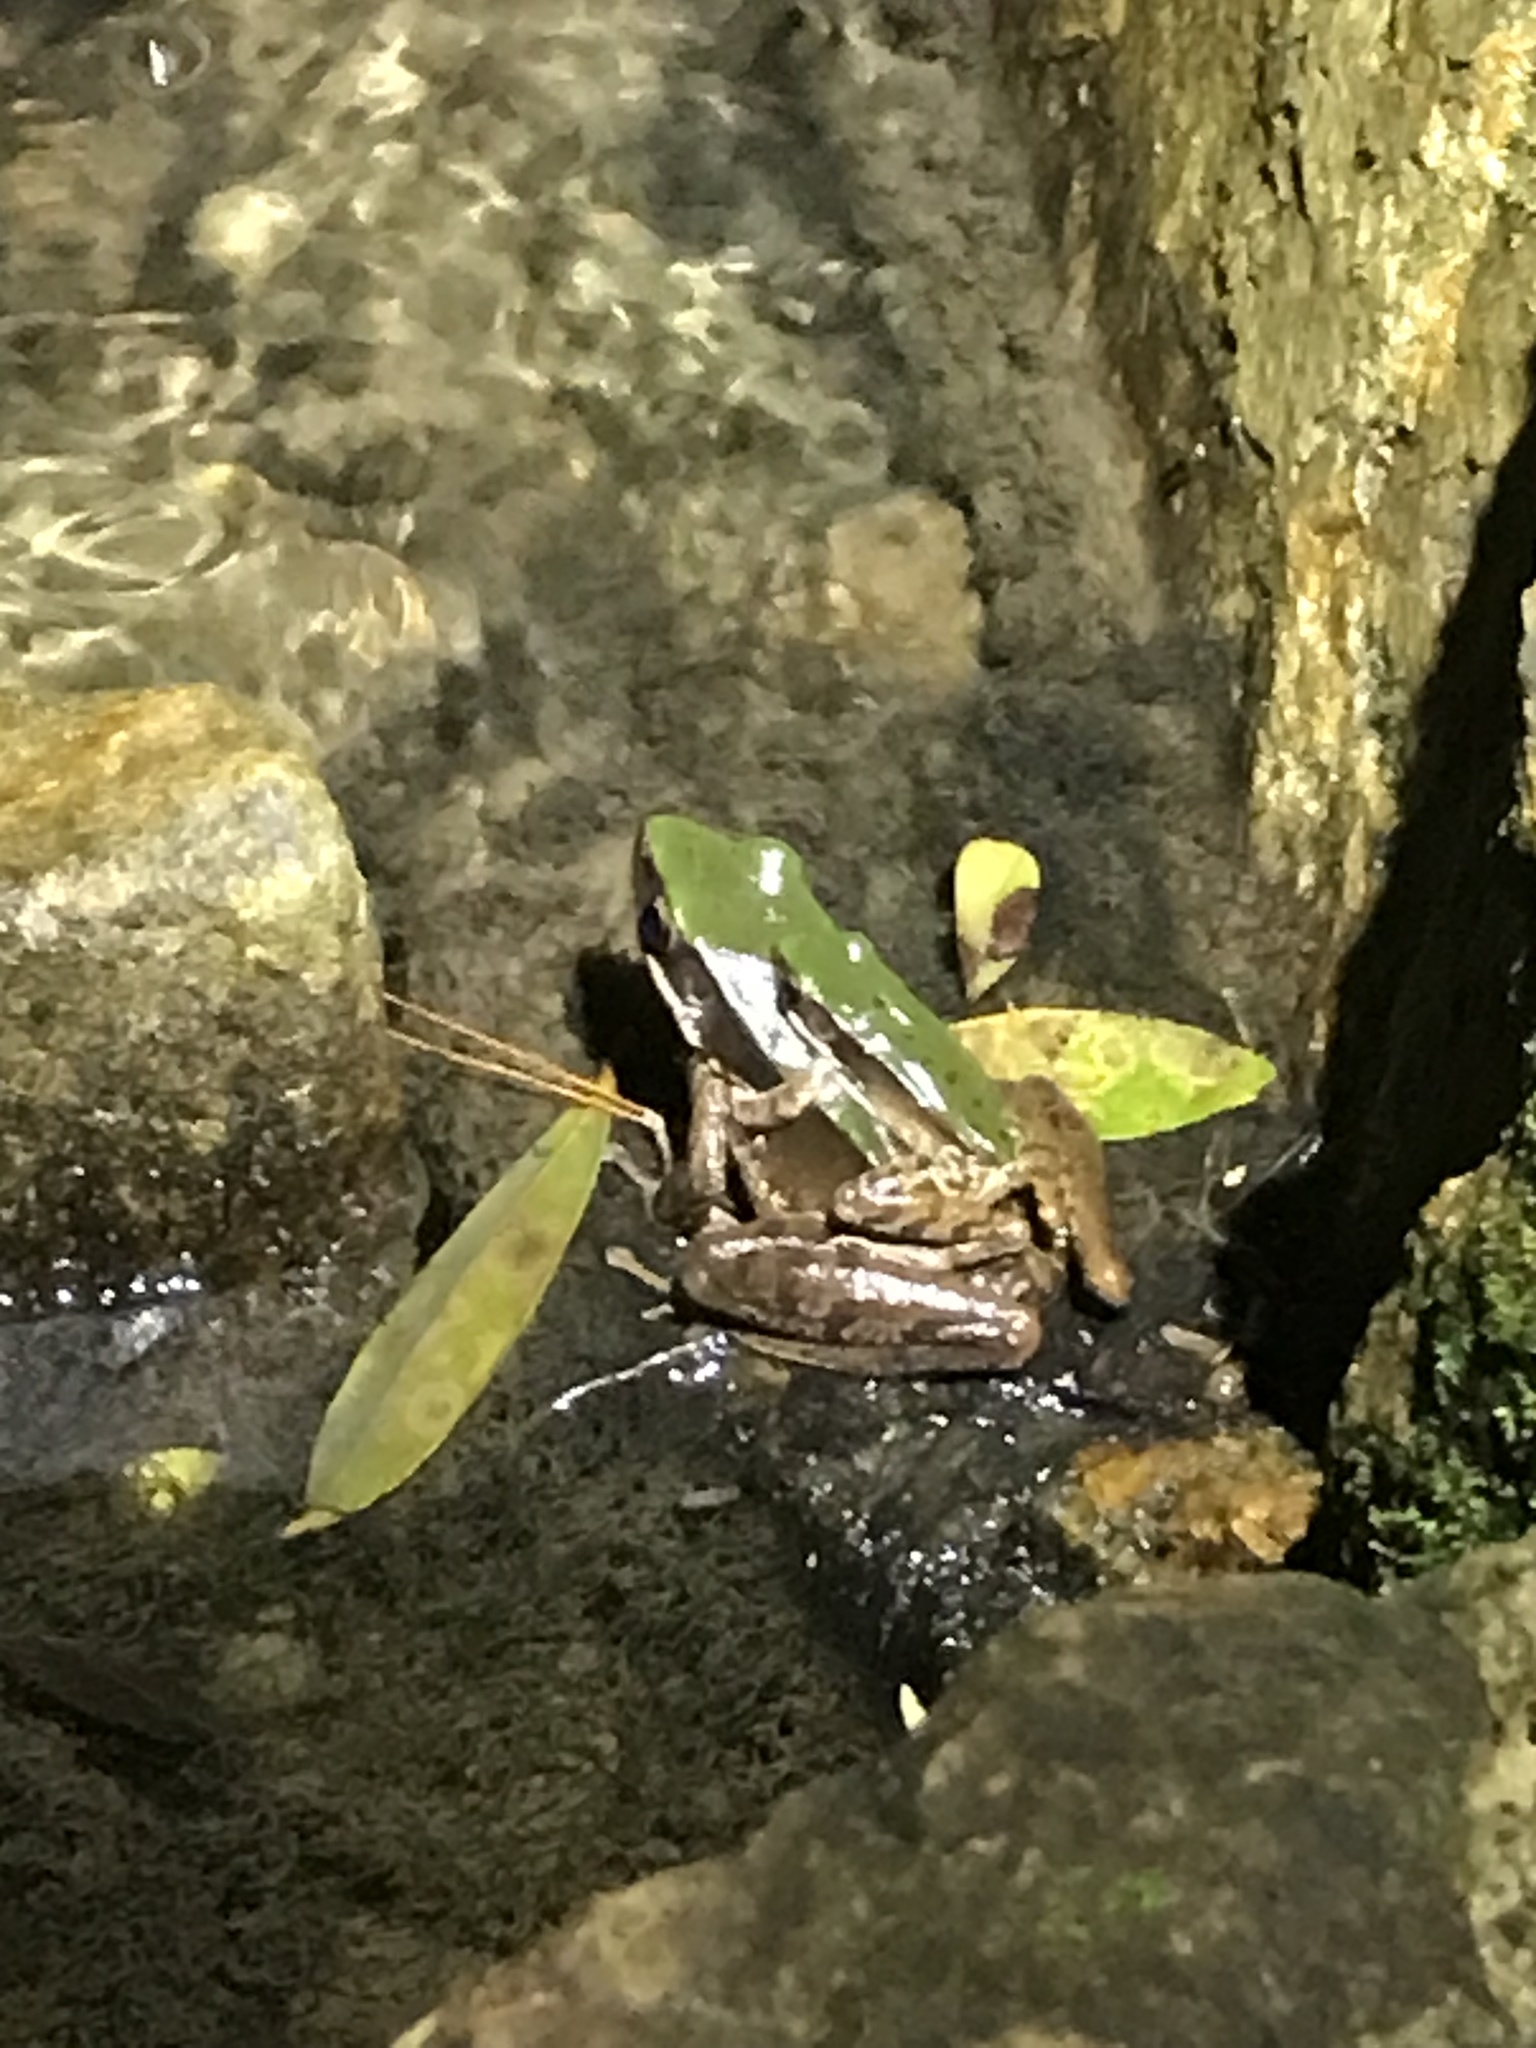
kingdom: Animalia
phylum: Chordata
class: Amphibia
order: Anura
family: Ranidae
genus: Odorrana
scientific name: Odorrana graminea
